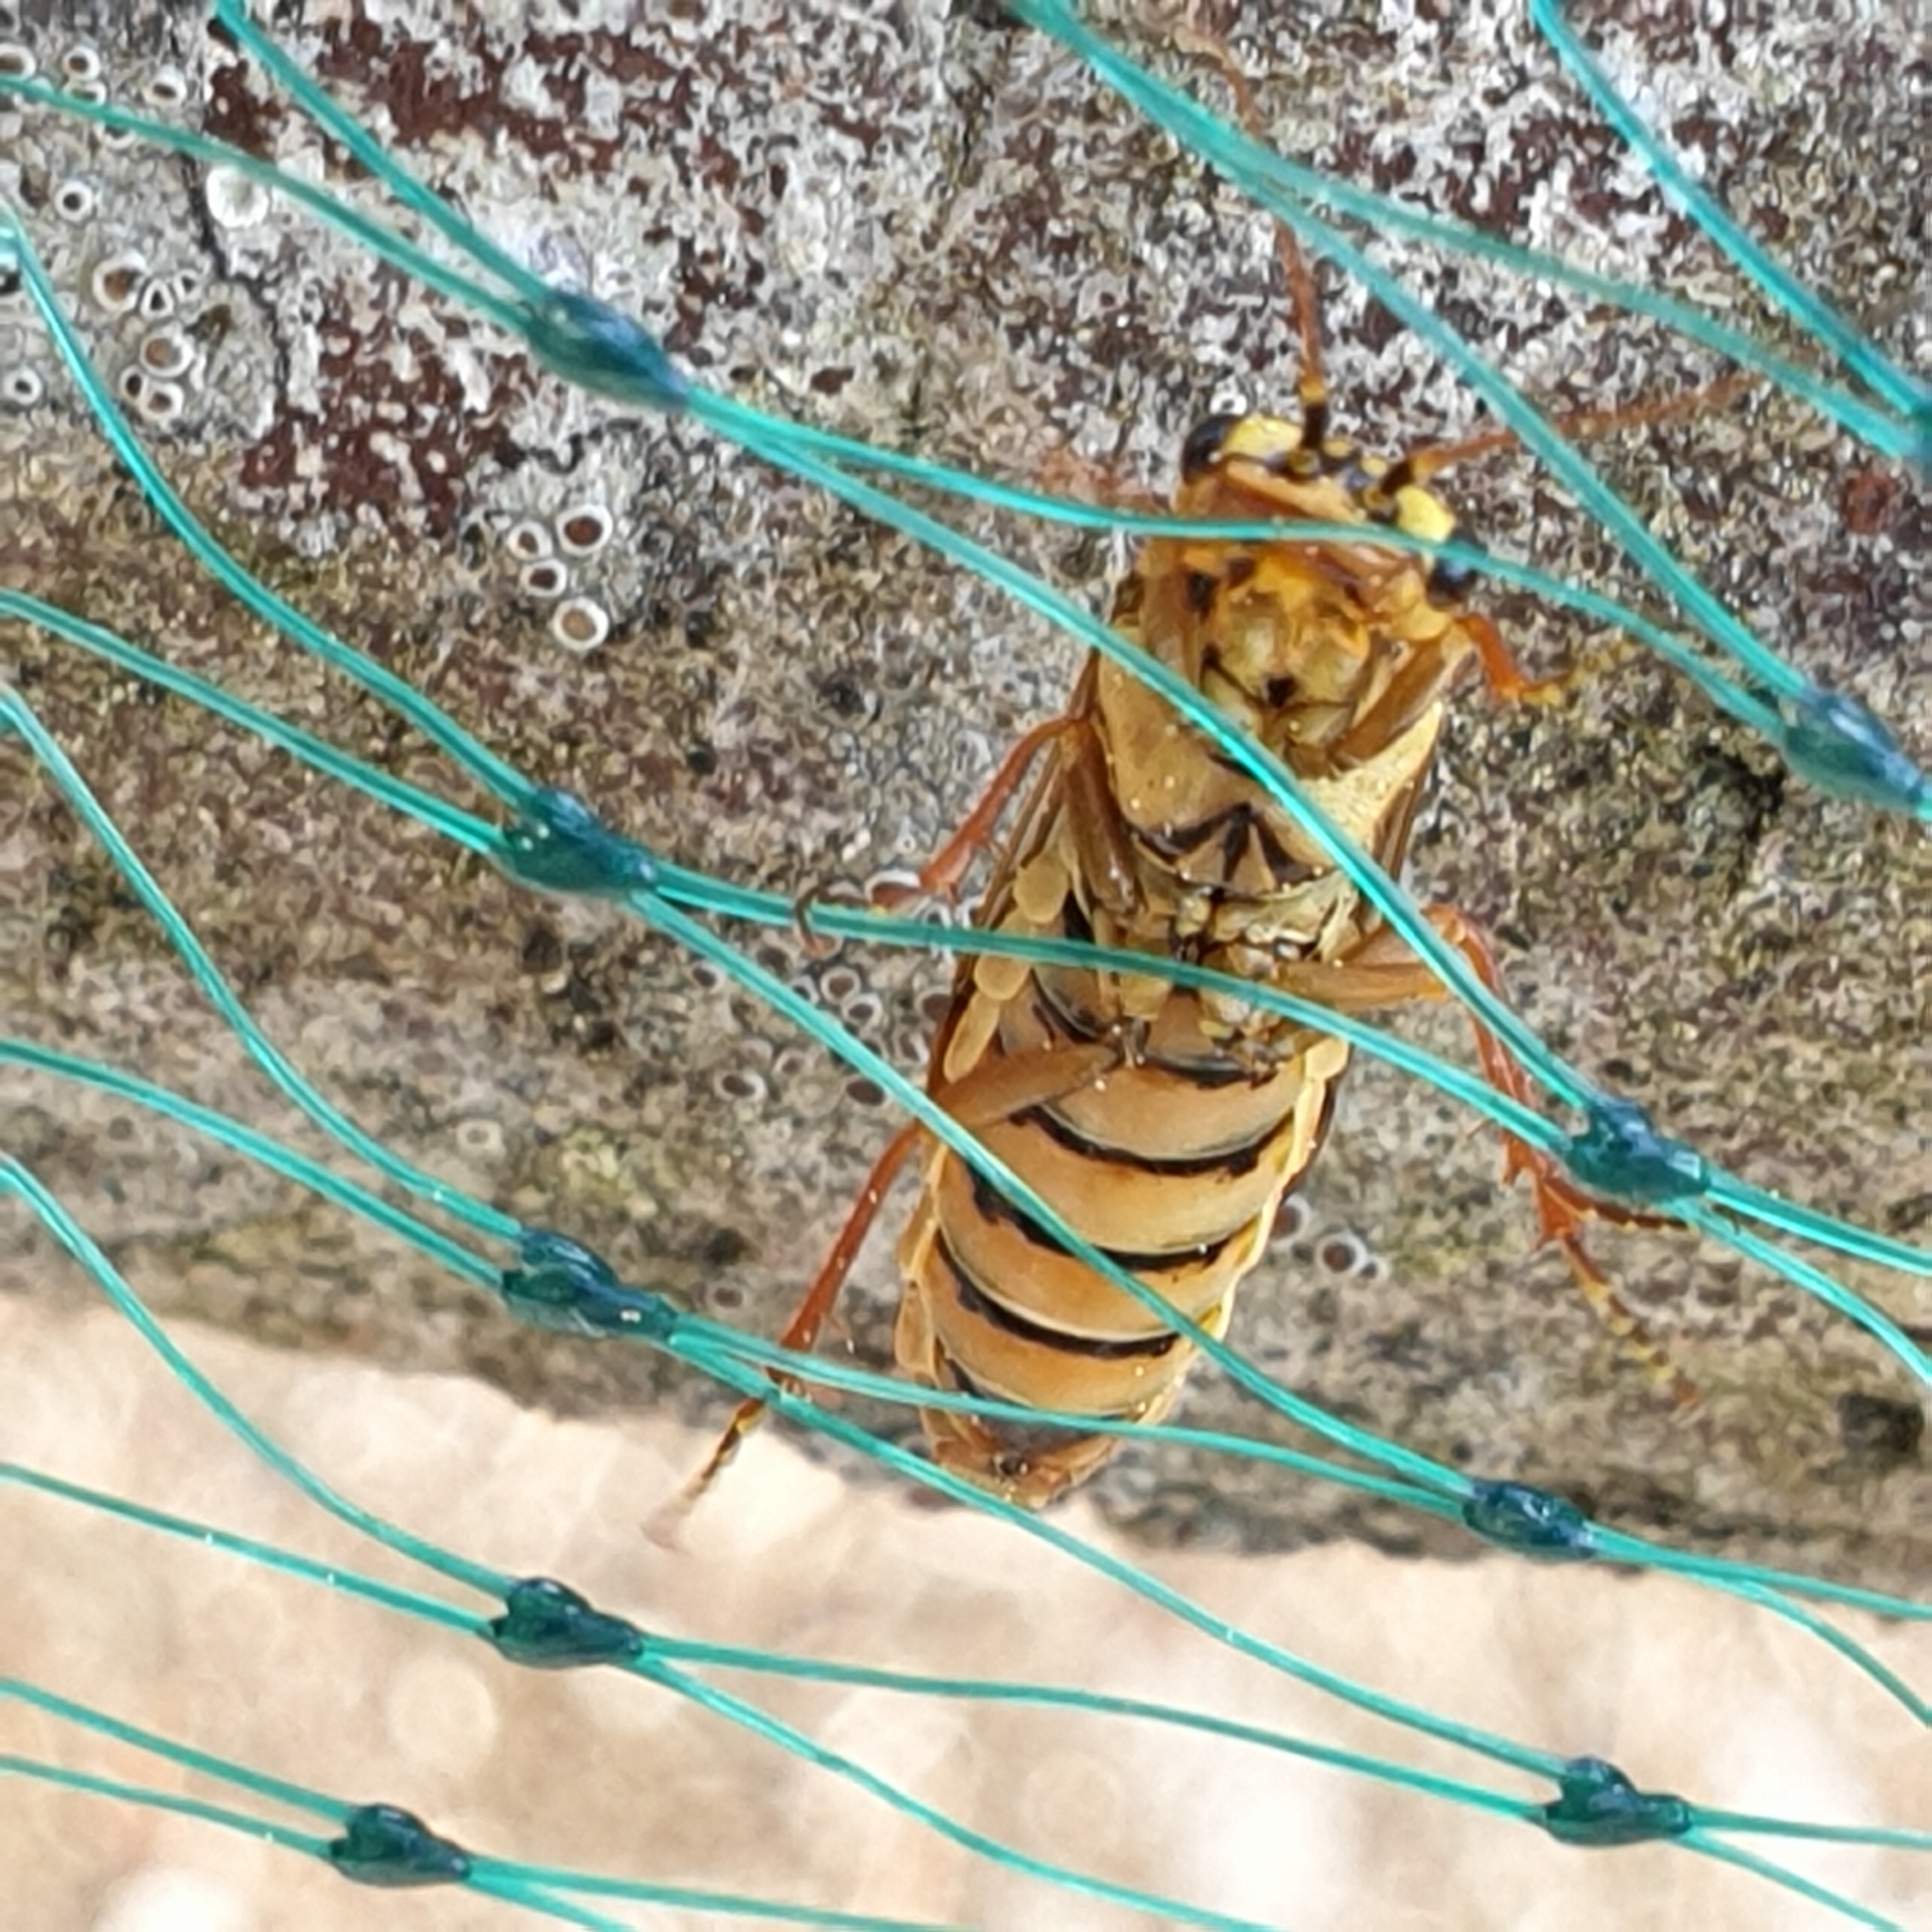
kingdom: Animalia
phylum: Arthropoda
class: Insecta
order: Hymenoptera
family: Pamphiliidae
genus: Acantholyda
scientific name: Acantholyda posticalis
